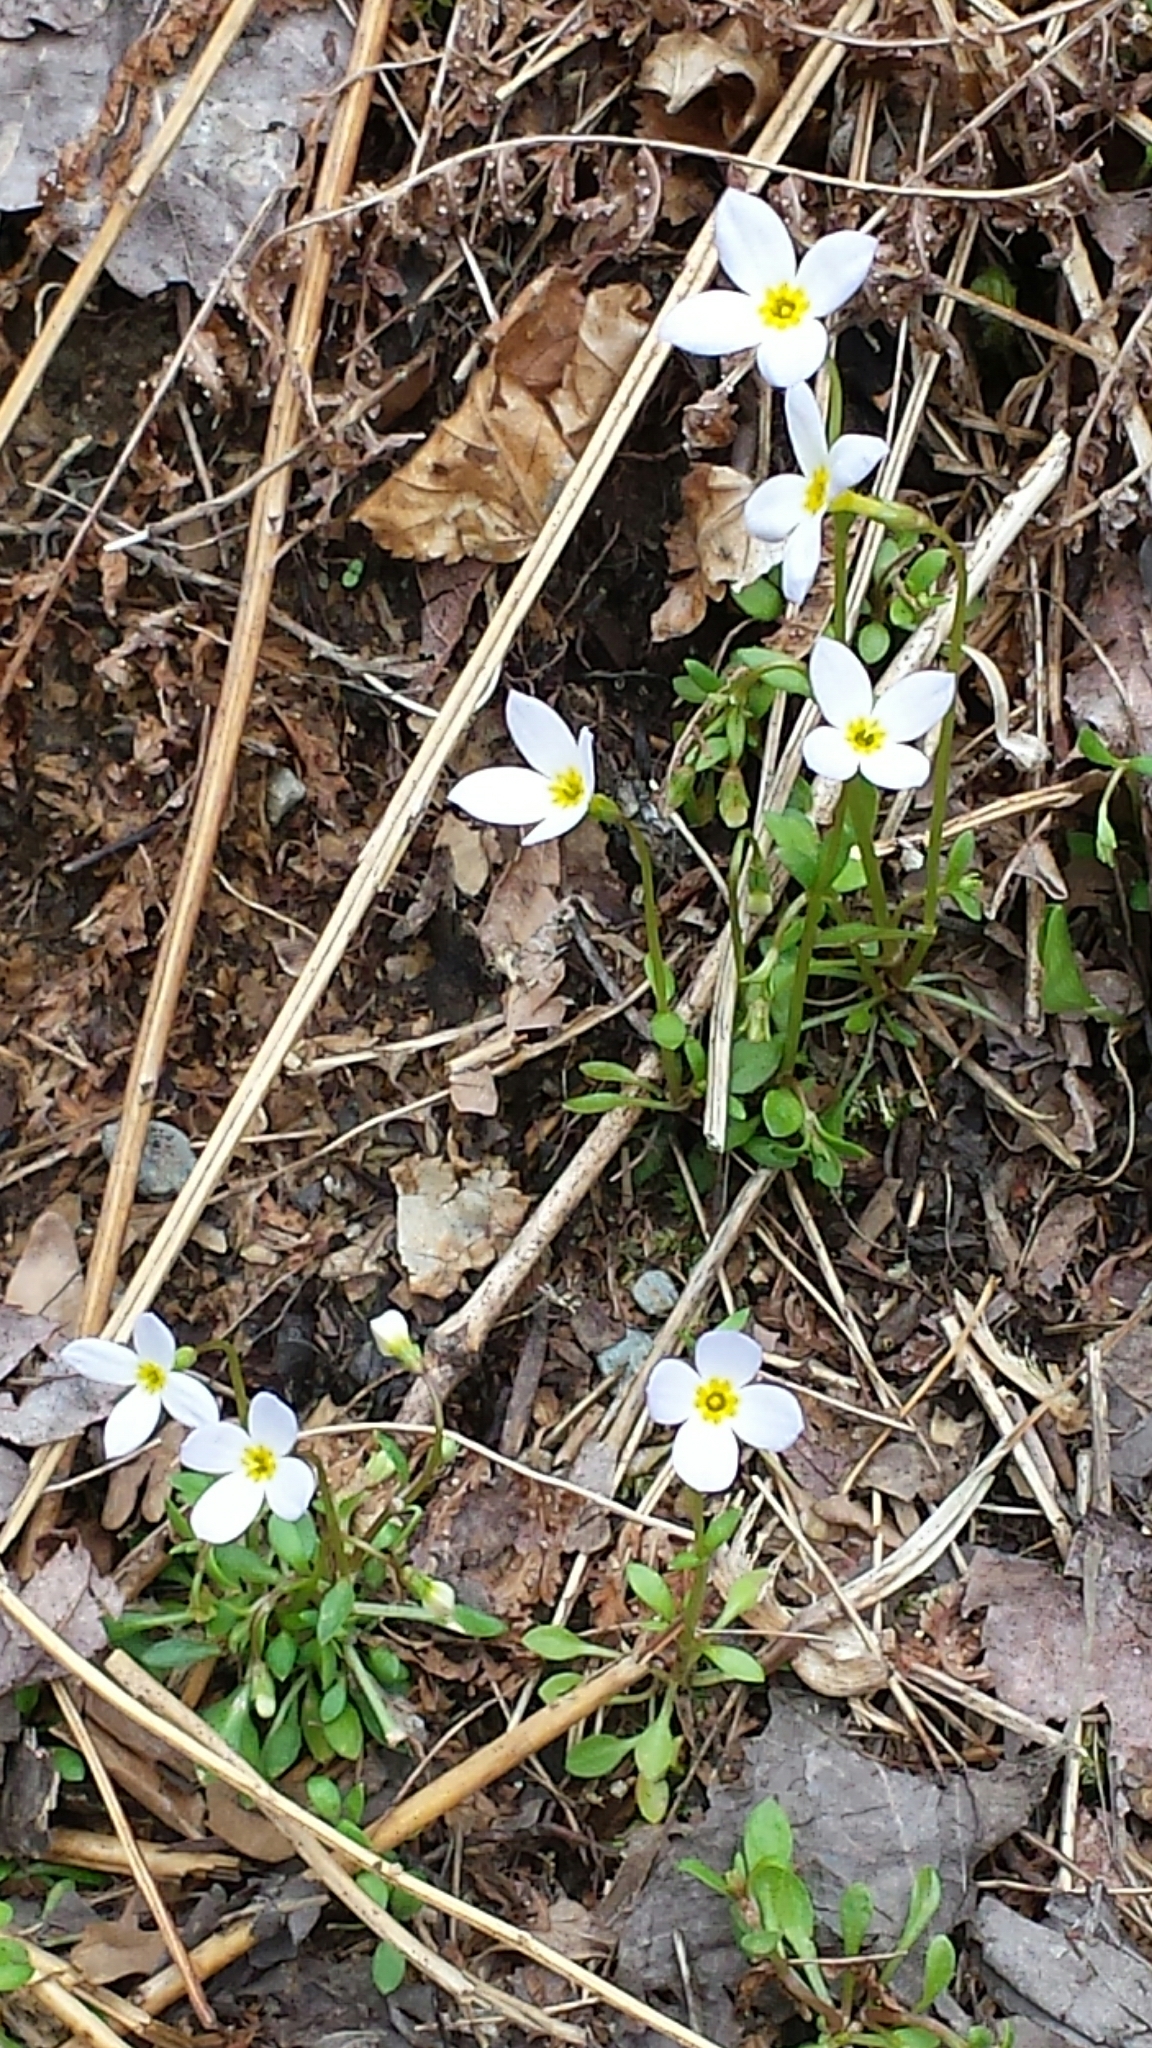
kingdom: Plantae
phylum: Tracheophyta
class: Magnoliopsida
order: Gentianales
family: Rubiaceae
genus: Houstonia
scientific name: Houstonia caerulea
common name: Bluets
